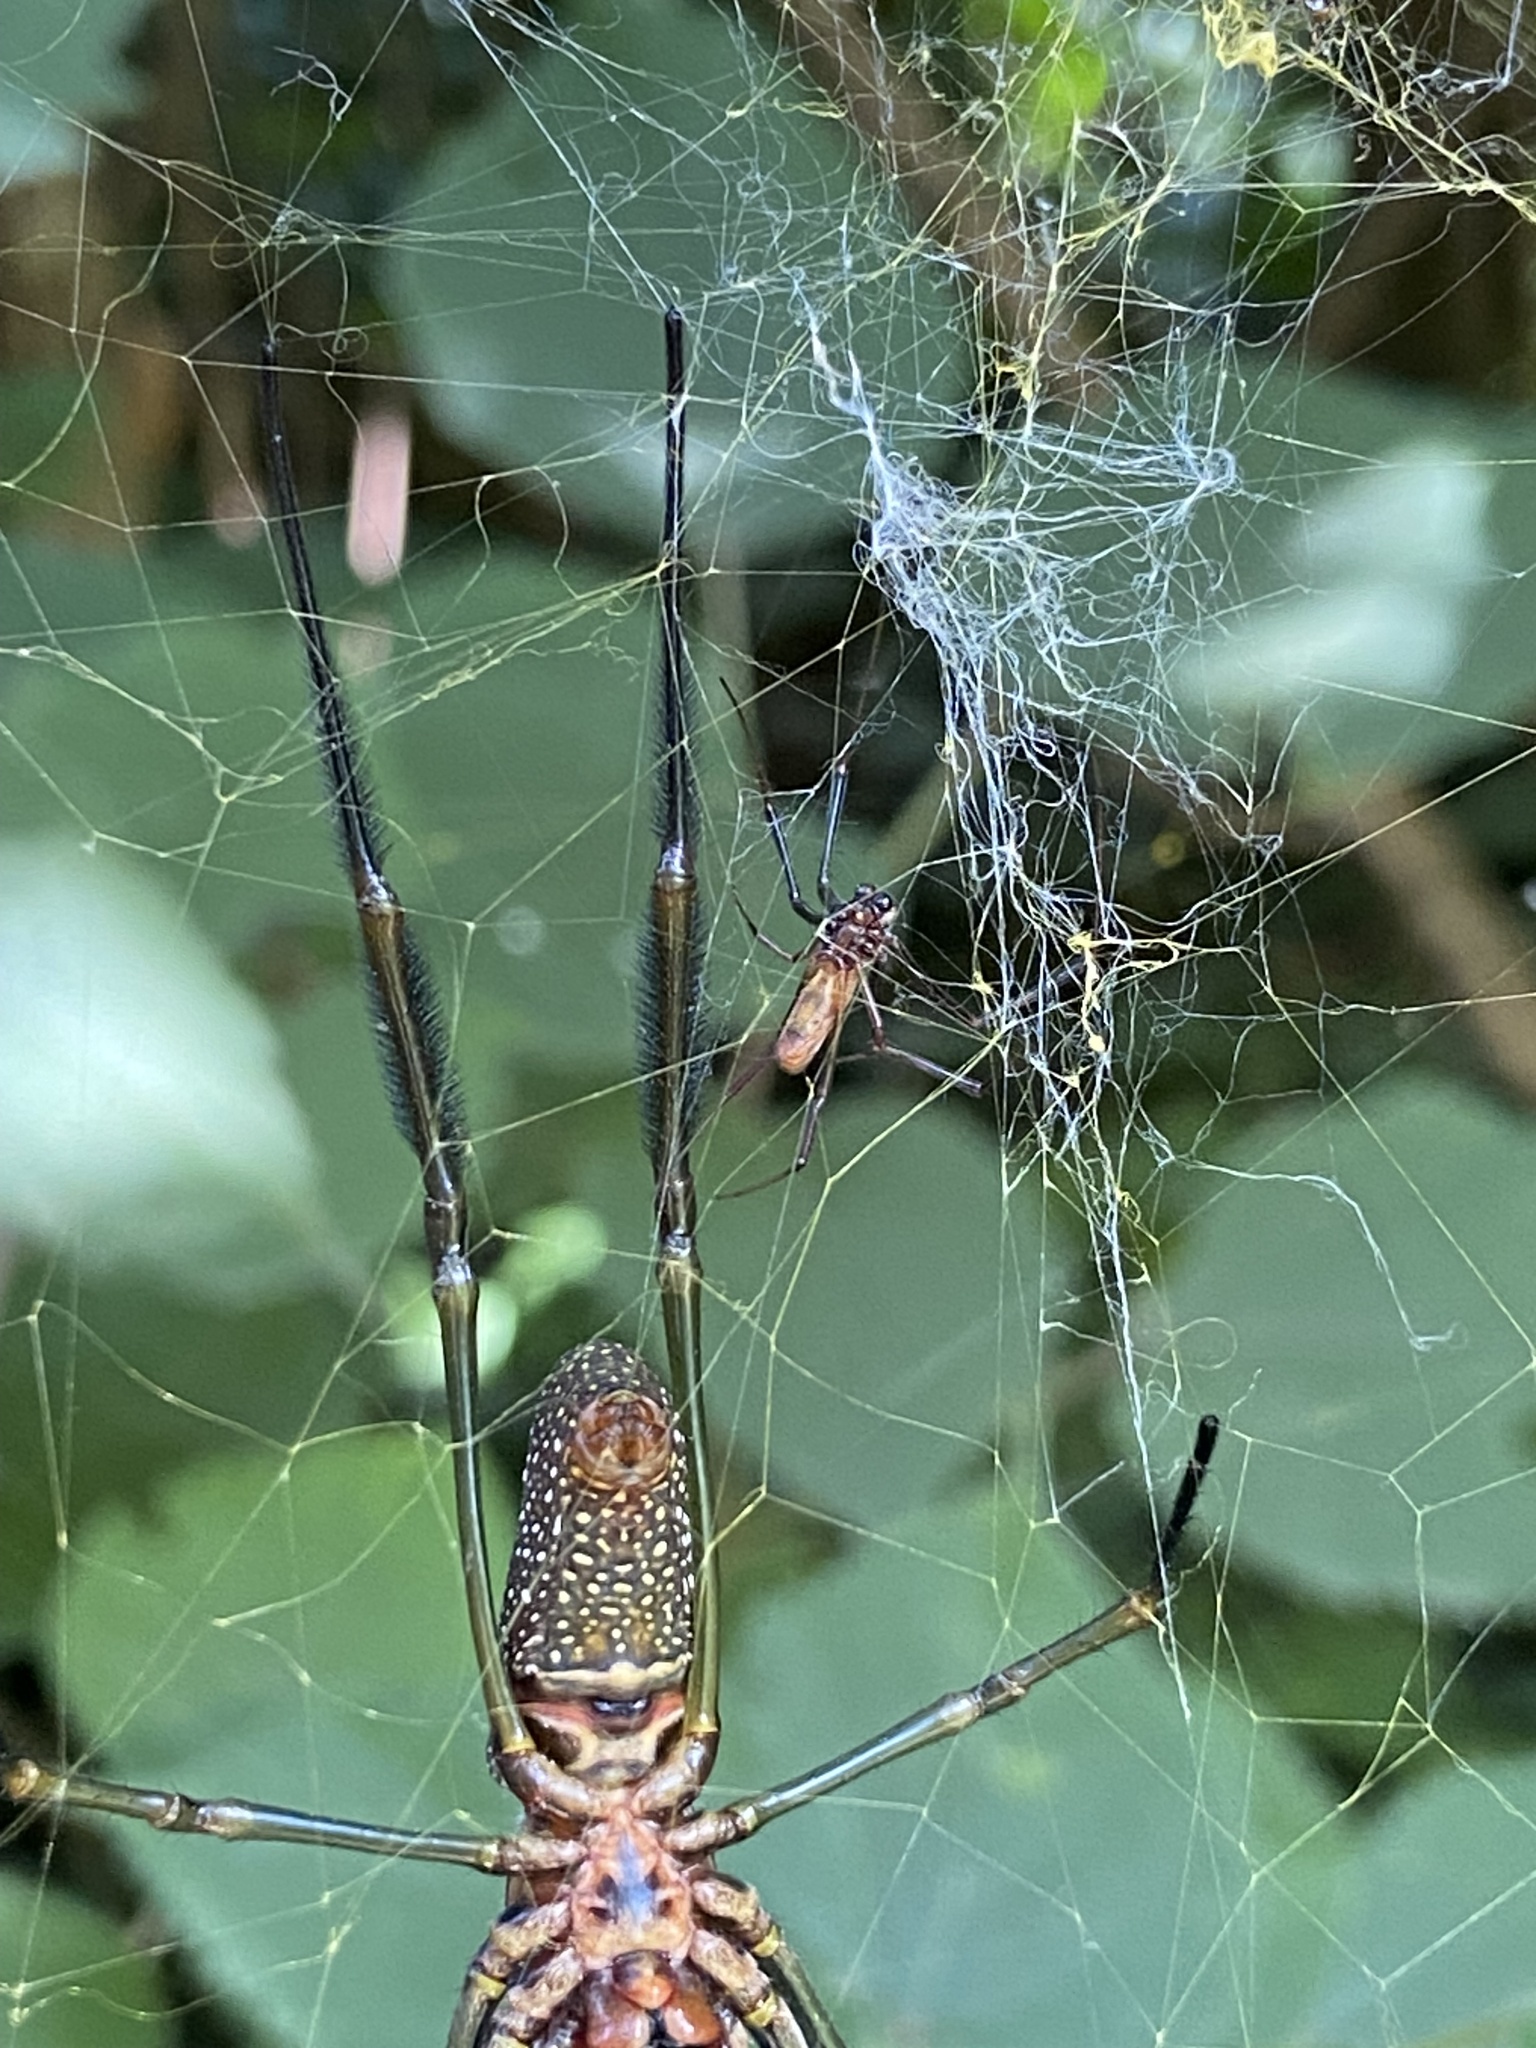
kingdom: Animalia
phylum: Arthropoda
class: Arachnida
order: Araneae
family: Araneidae
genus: Trichonephila
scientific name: Trichonephila clavipes
